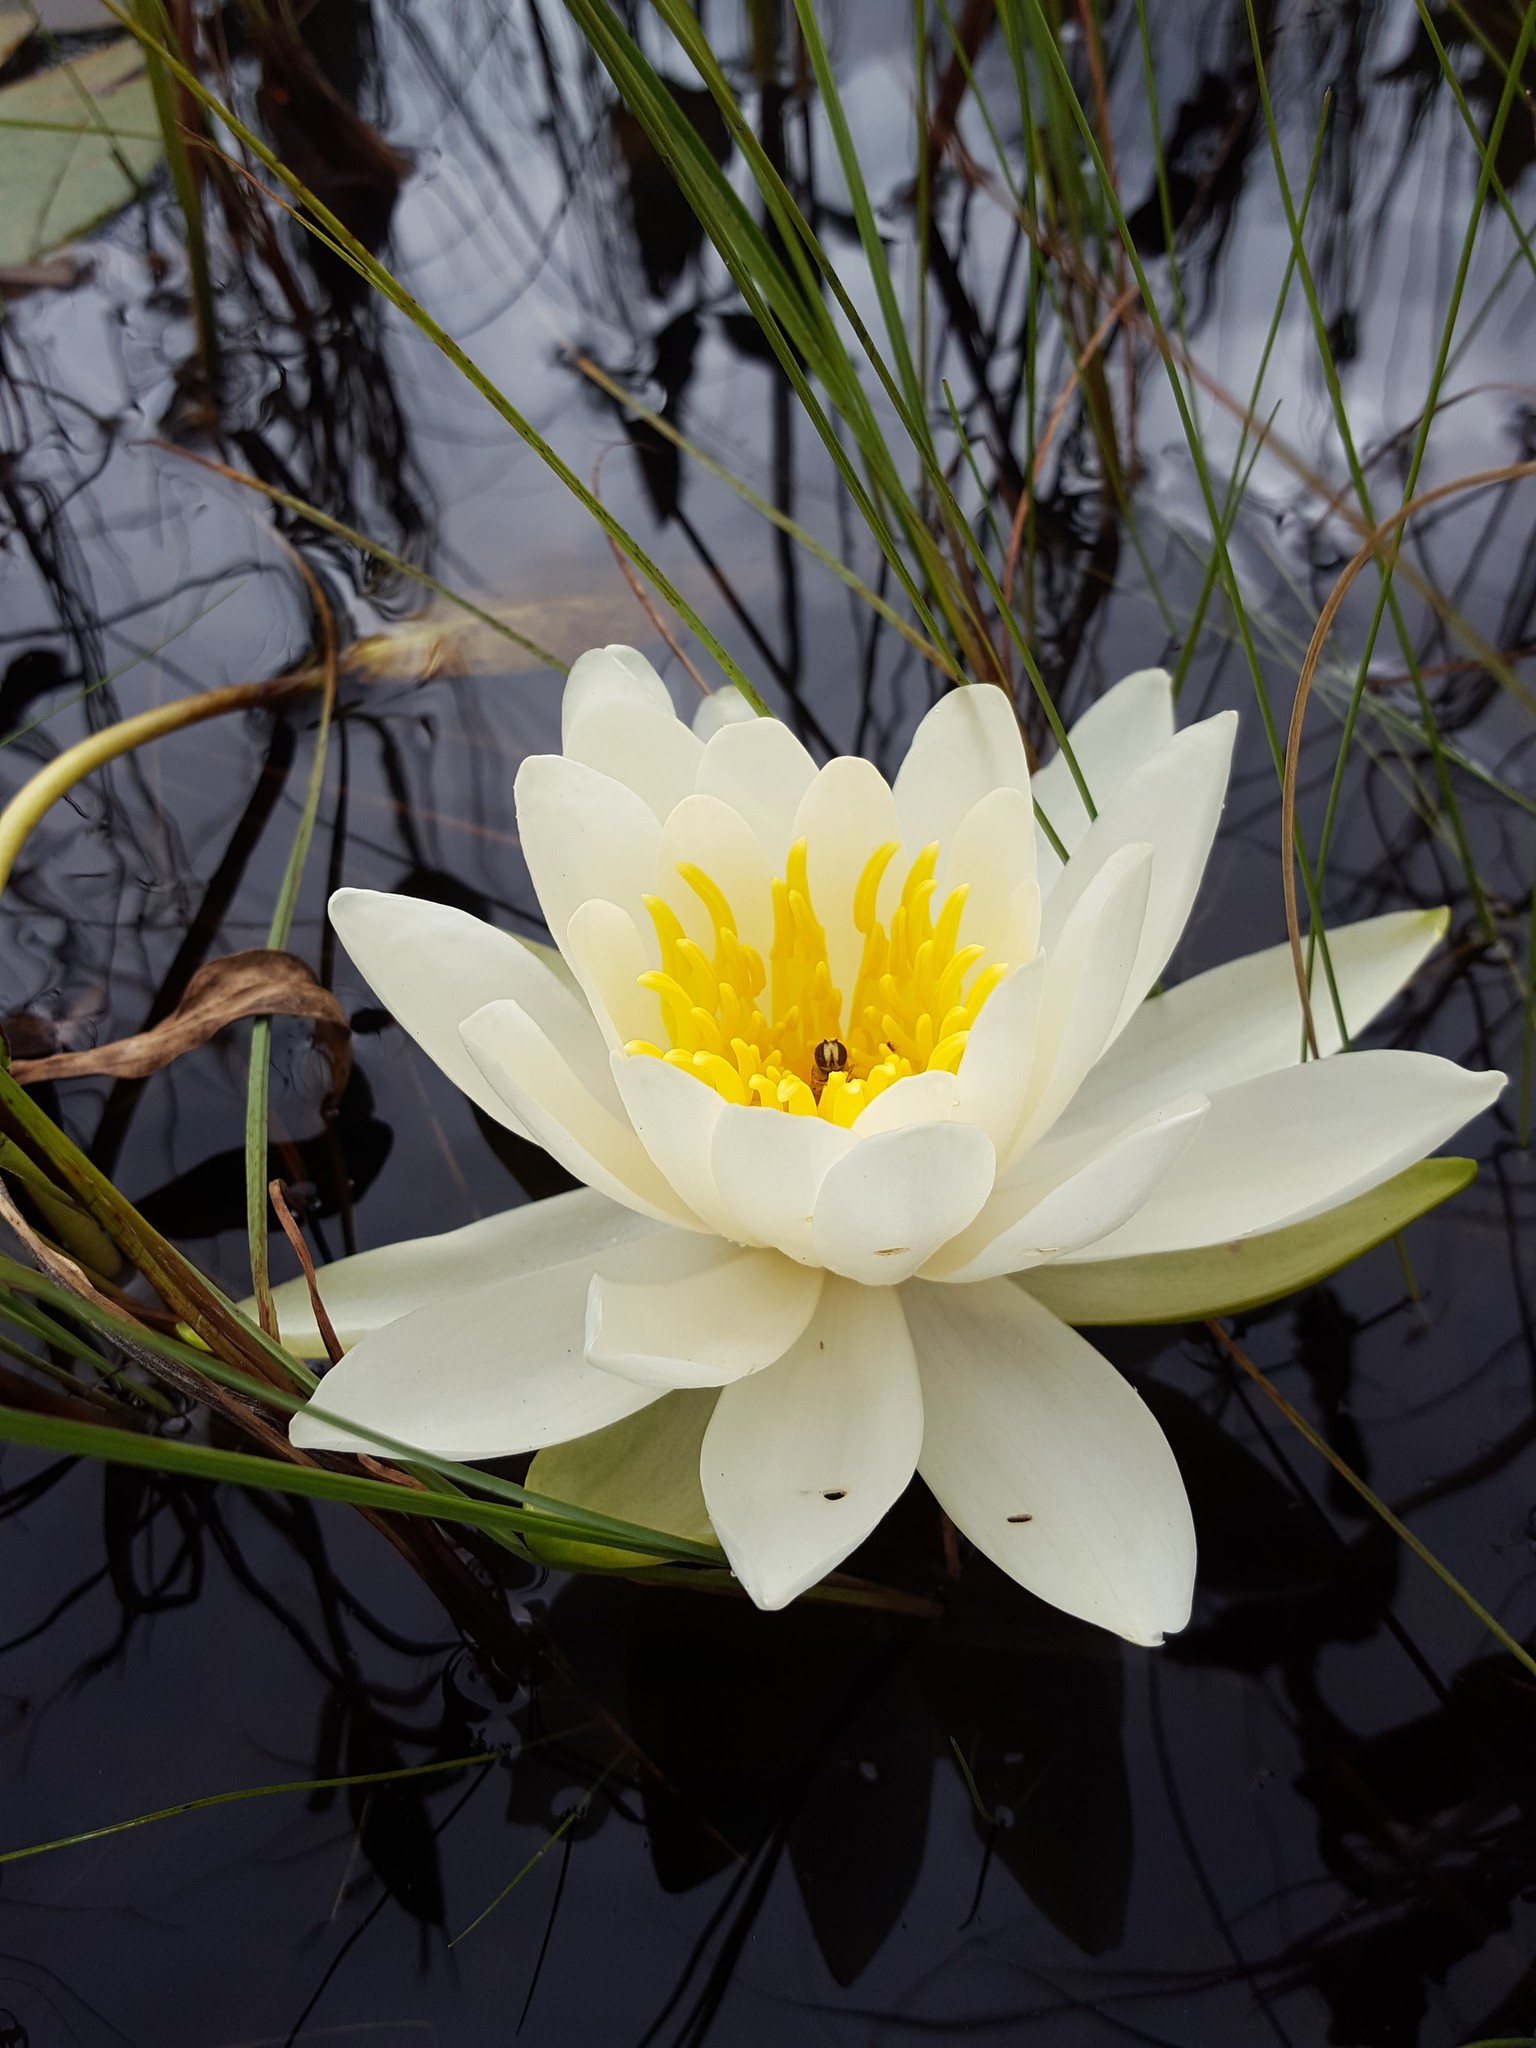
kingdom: Plantae
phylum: Tracheophyta
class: Magnoliopsida
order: Nymphaeales
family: Nymphaeaceae
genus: Nymphaea
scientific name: Nymphaea odorata
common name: Fragrant water-lily
